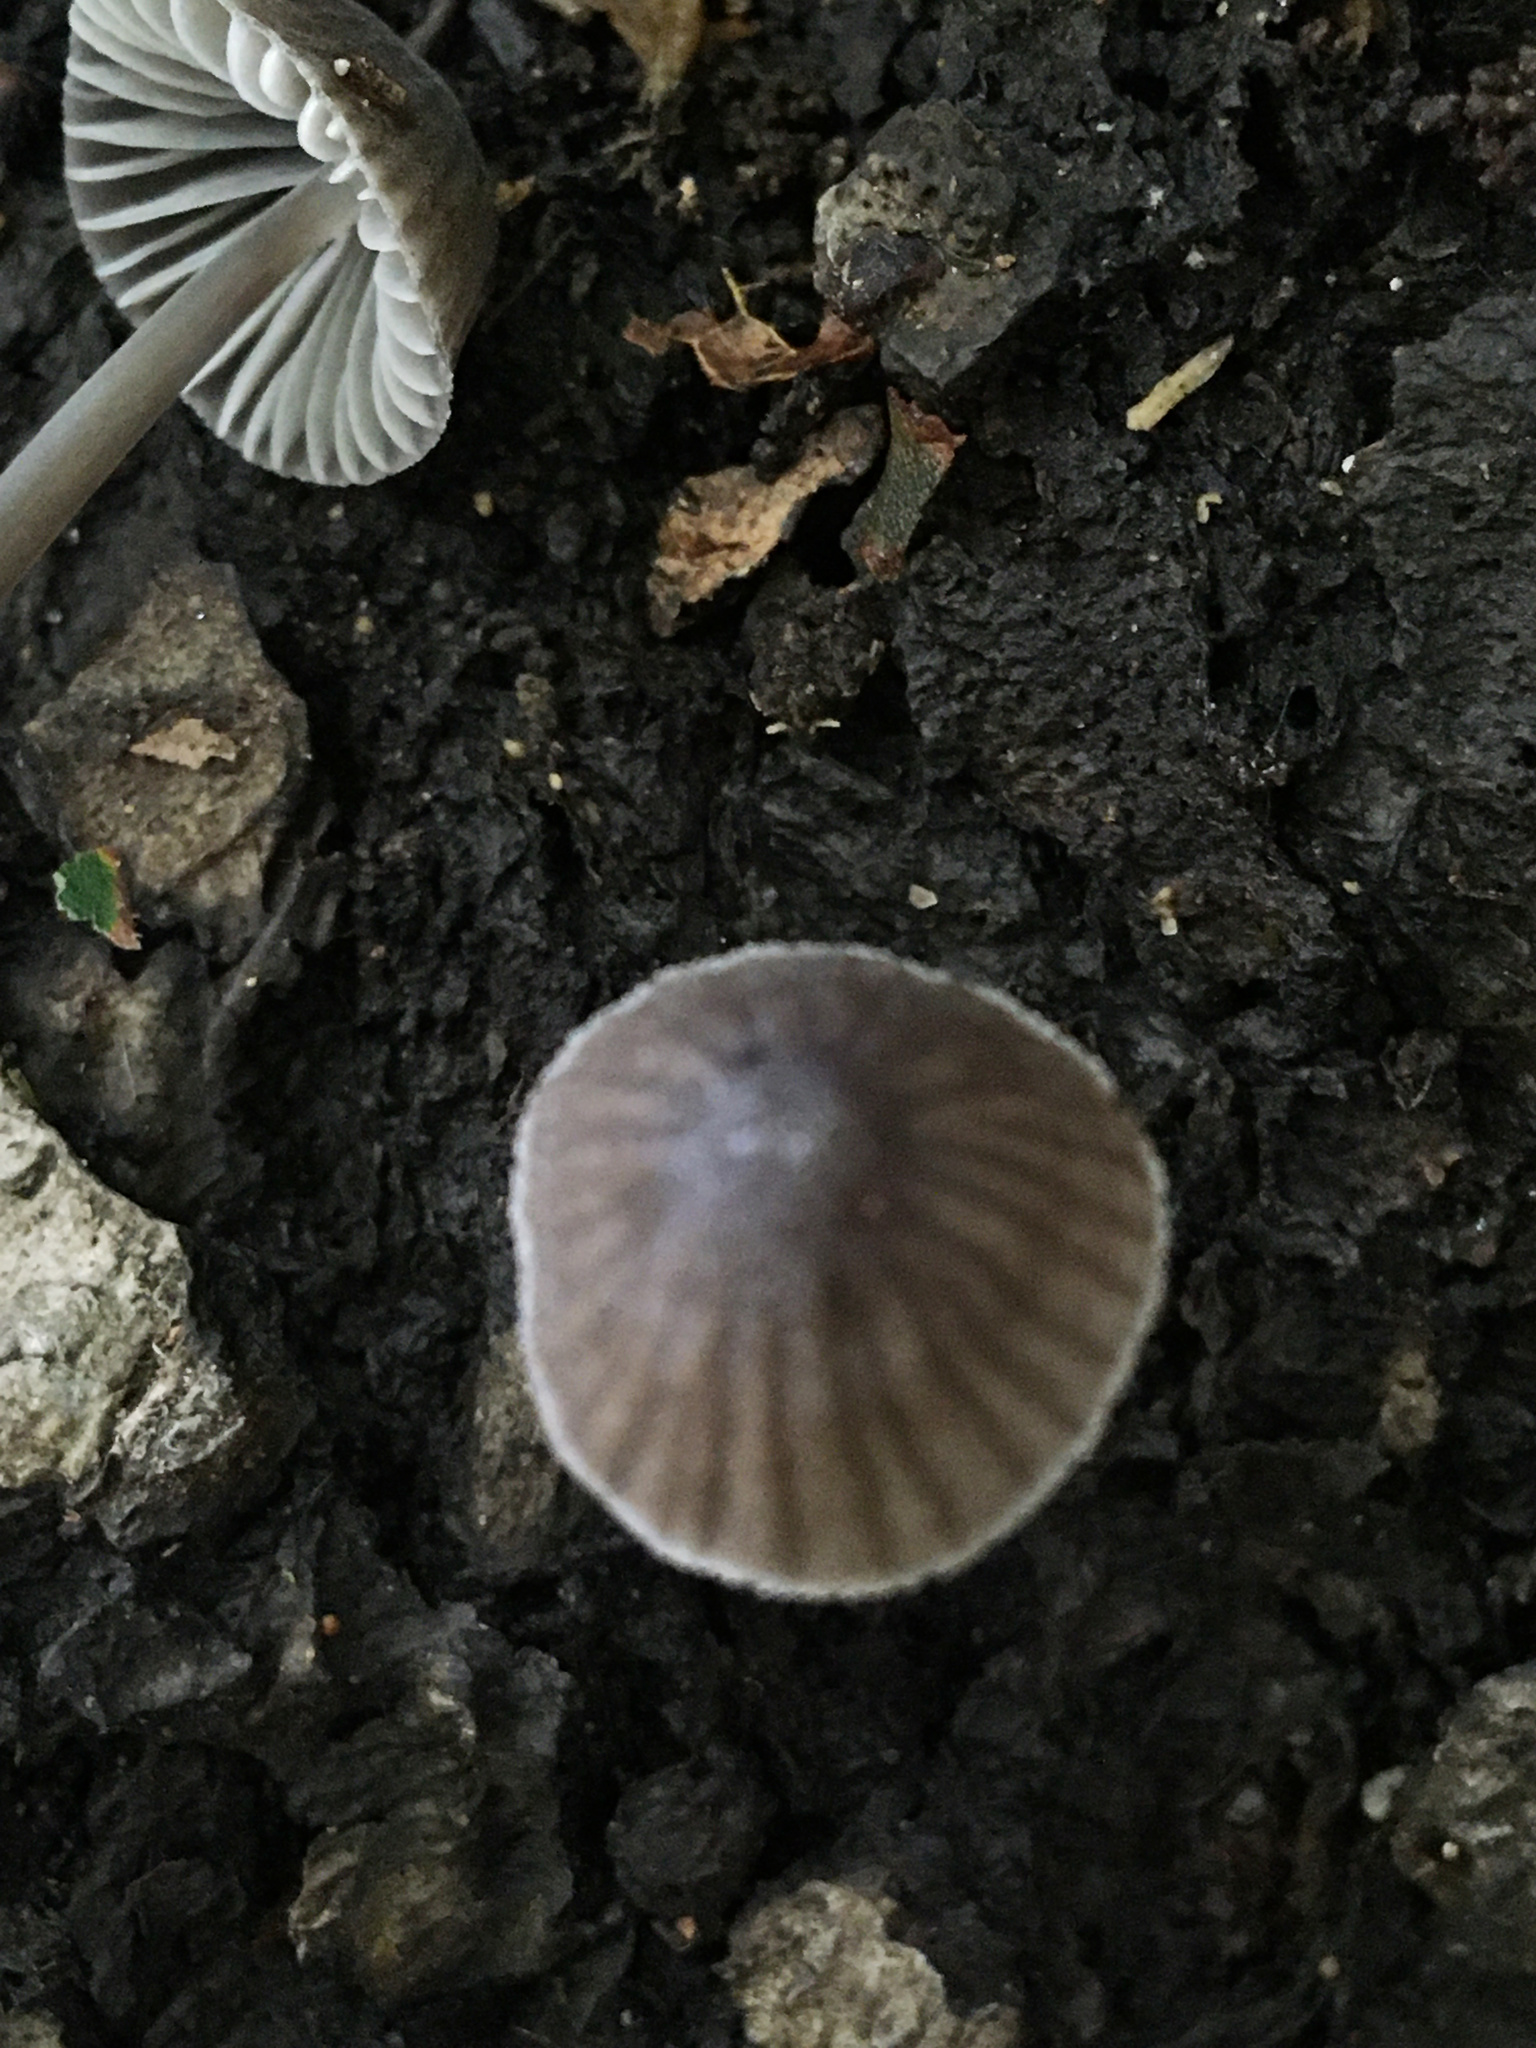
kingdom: Fungi
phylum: Basidiomycota
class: Agaricomycetes
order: Agaricales
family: Mycenaceae
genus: Mycena
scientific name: Mycena galericulata
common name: Bonnet mycena
